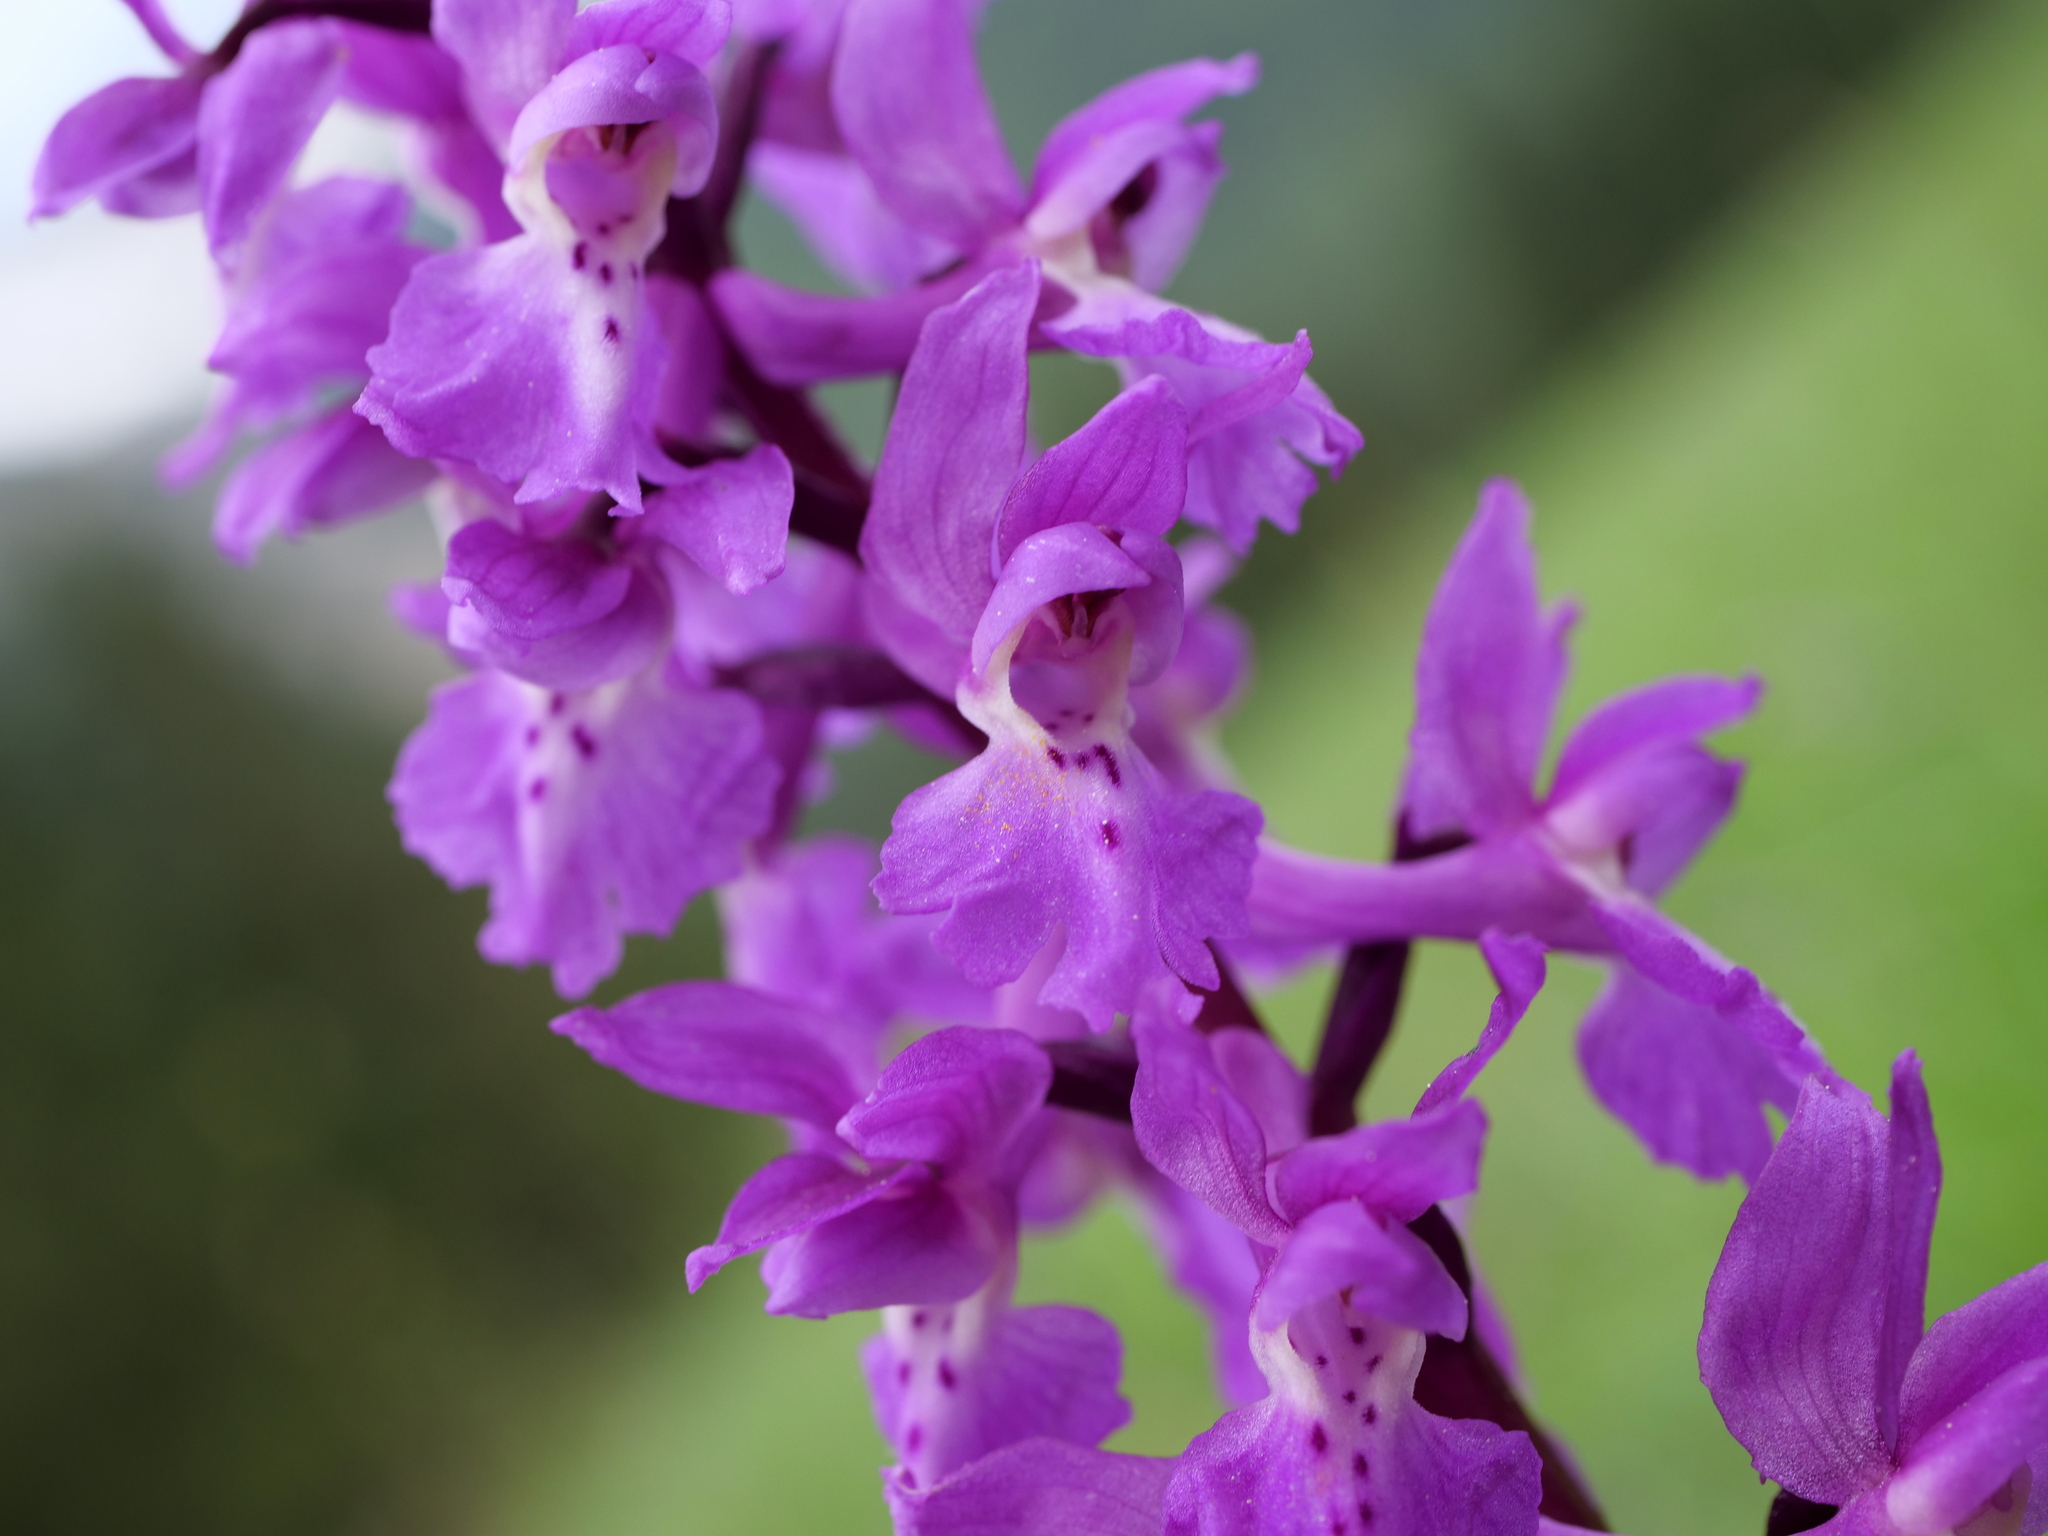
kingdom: Plantae
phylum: Tracheophyta
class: Liliopsida
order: Asparagales
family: Orchidaceae
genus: Orchis
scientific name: Orchis mascula
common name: Early-purple orchid
